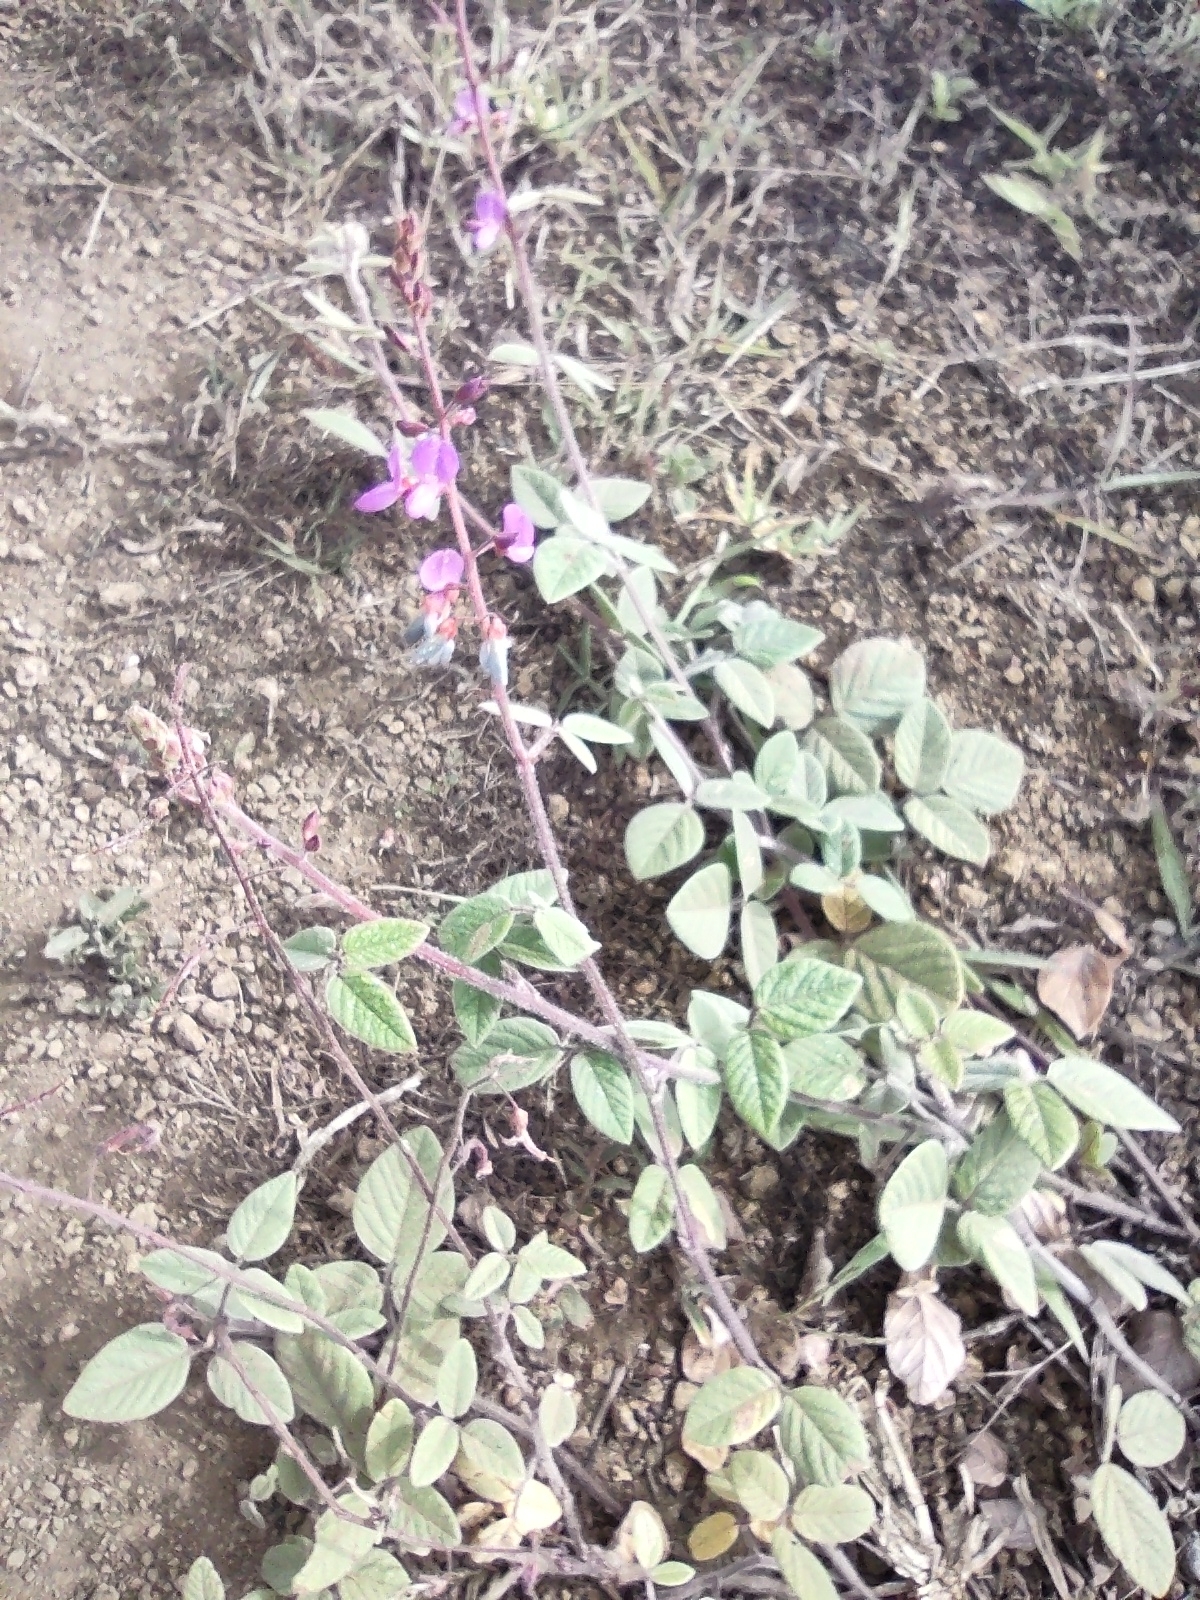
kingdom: Plantae
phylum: Tracheophyta
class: Magnoliopsida
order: Fabales
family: Fabaceae
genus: Desmodium
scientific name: Desmodium incanum
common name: Tickclover
